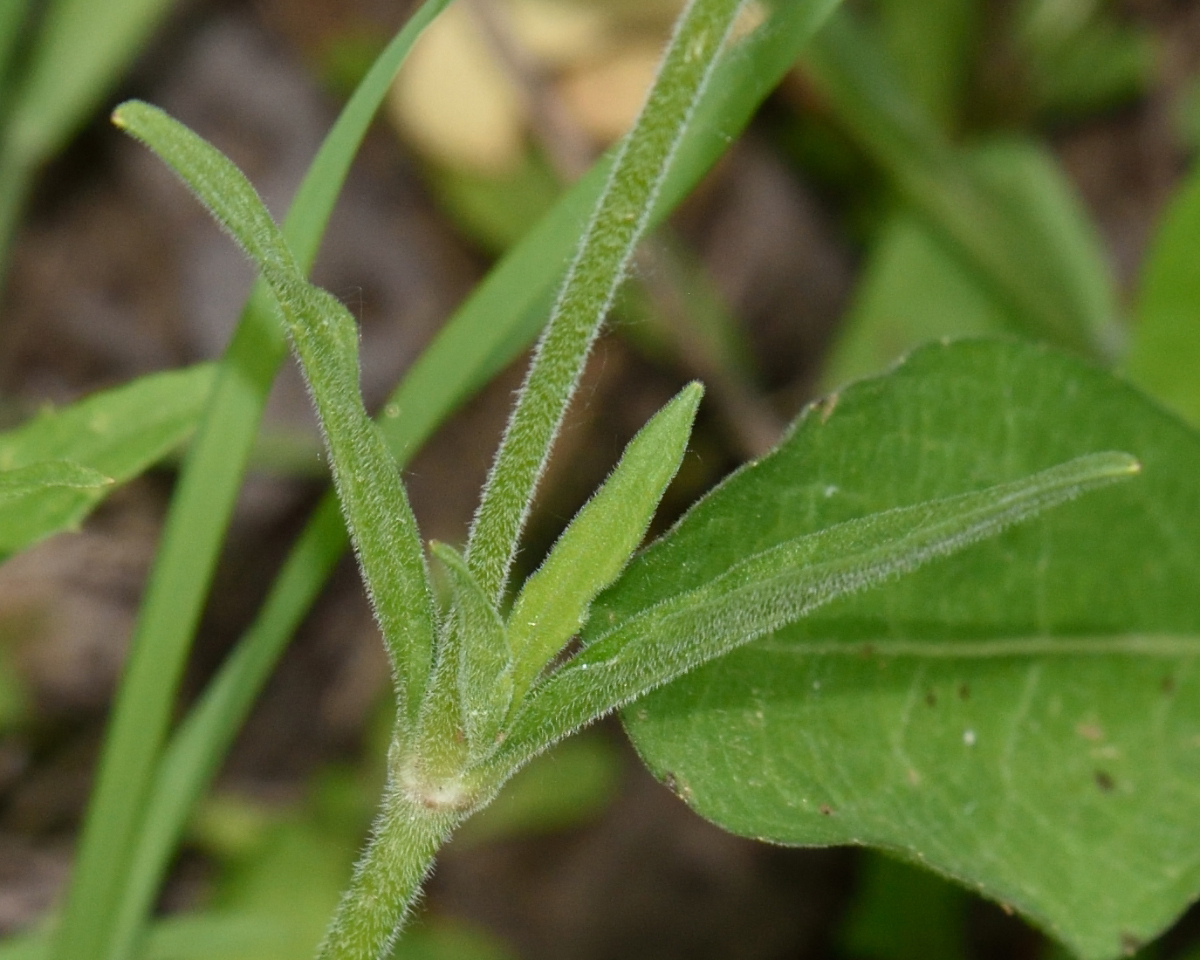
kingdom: Plantae
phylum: Tracheophyta
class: Magnoliopsida
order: Caryophyllales
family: Caryophyllaceae
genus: Silene
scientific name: Silene nutans
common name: Nottingham catchfly
